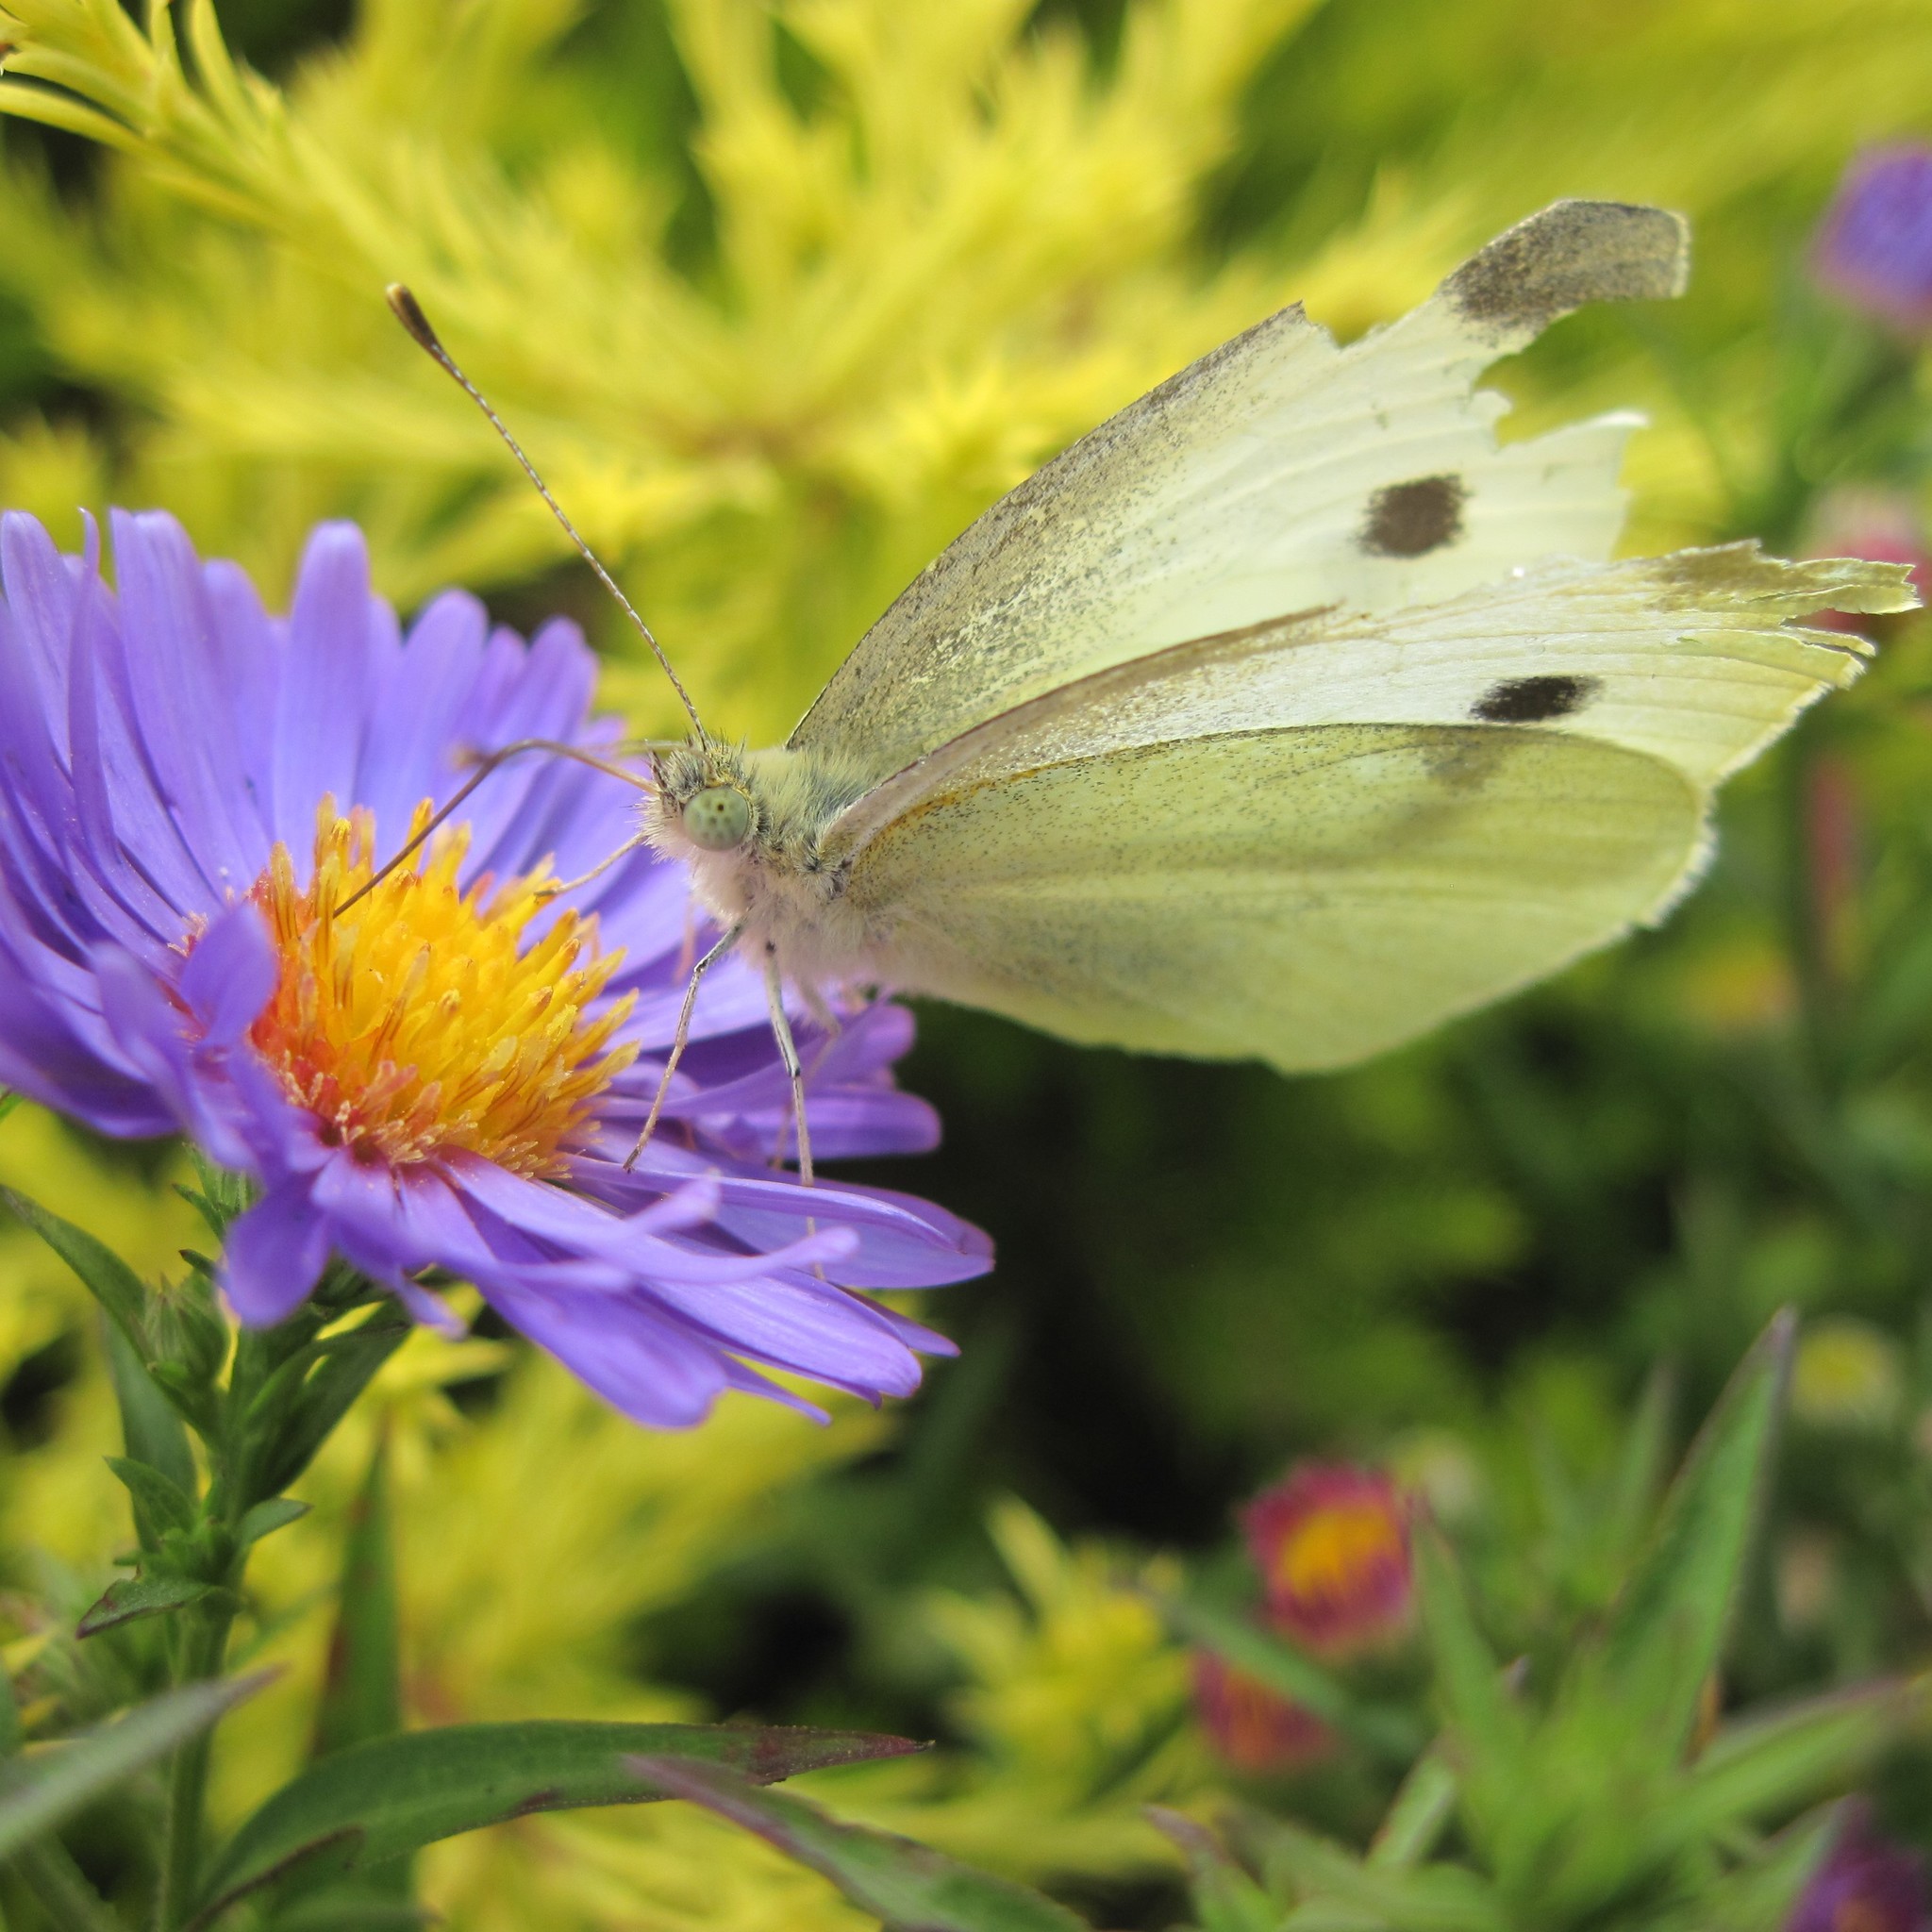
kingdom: Animalia
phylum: Arthropoda
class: Insecta
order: Lepidoptera
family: Pieridae
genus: Pieris
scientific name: Pieris rapae
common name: Small white
